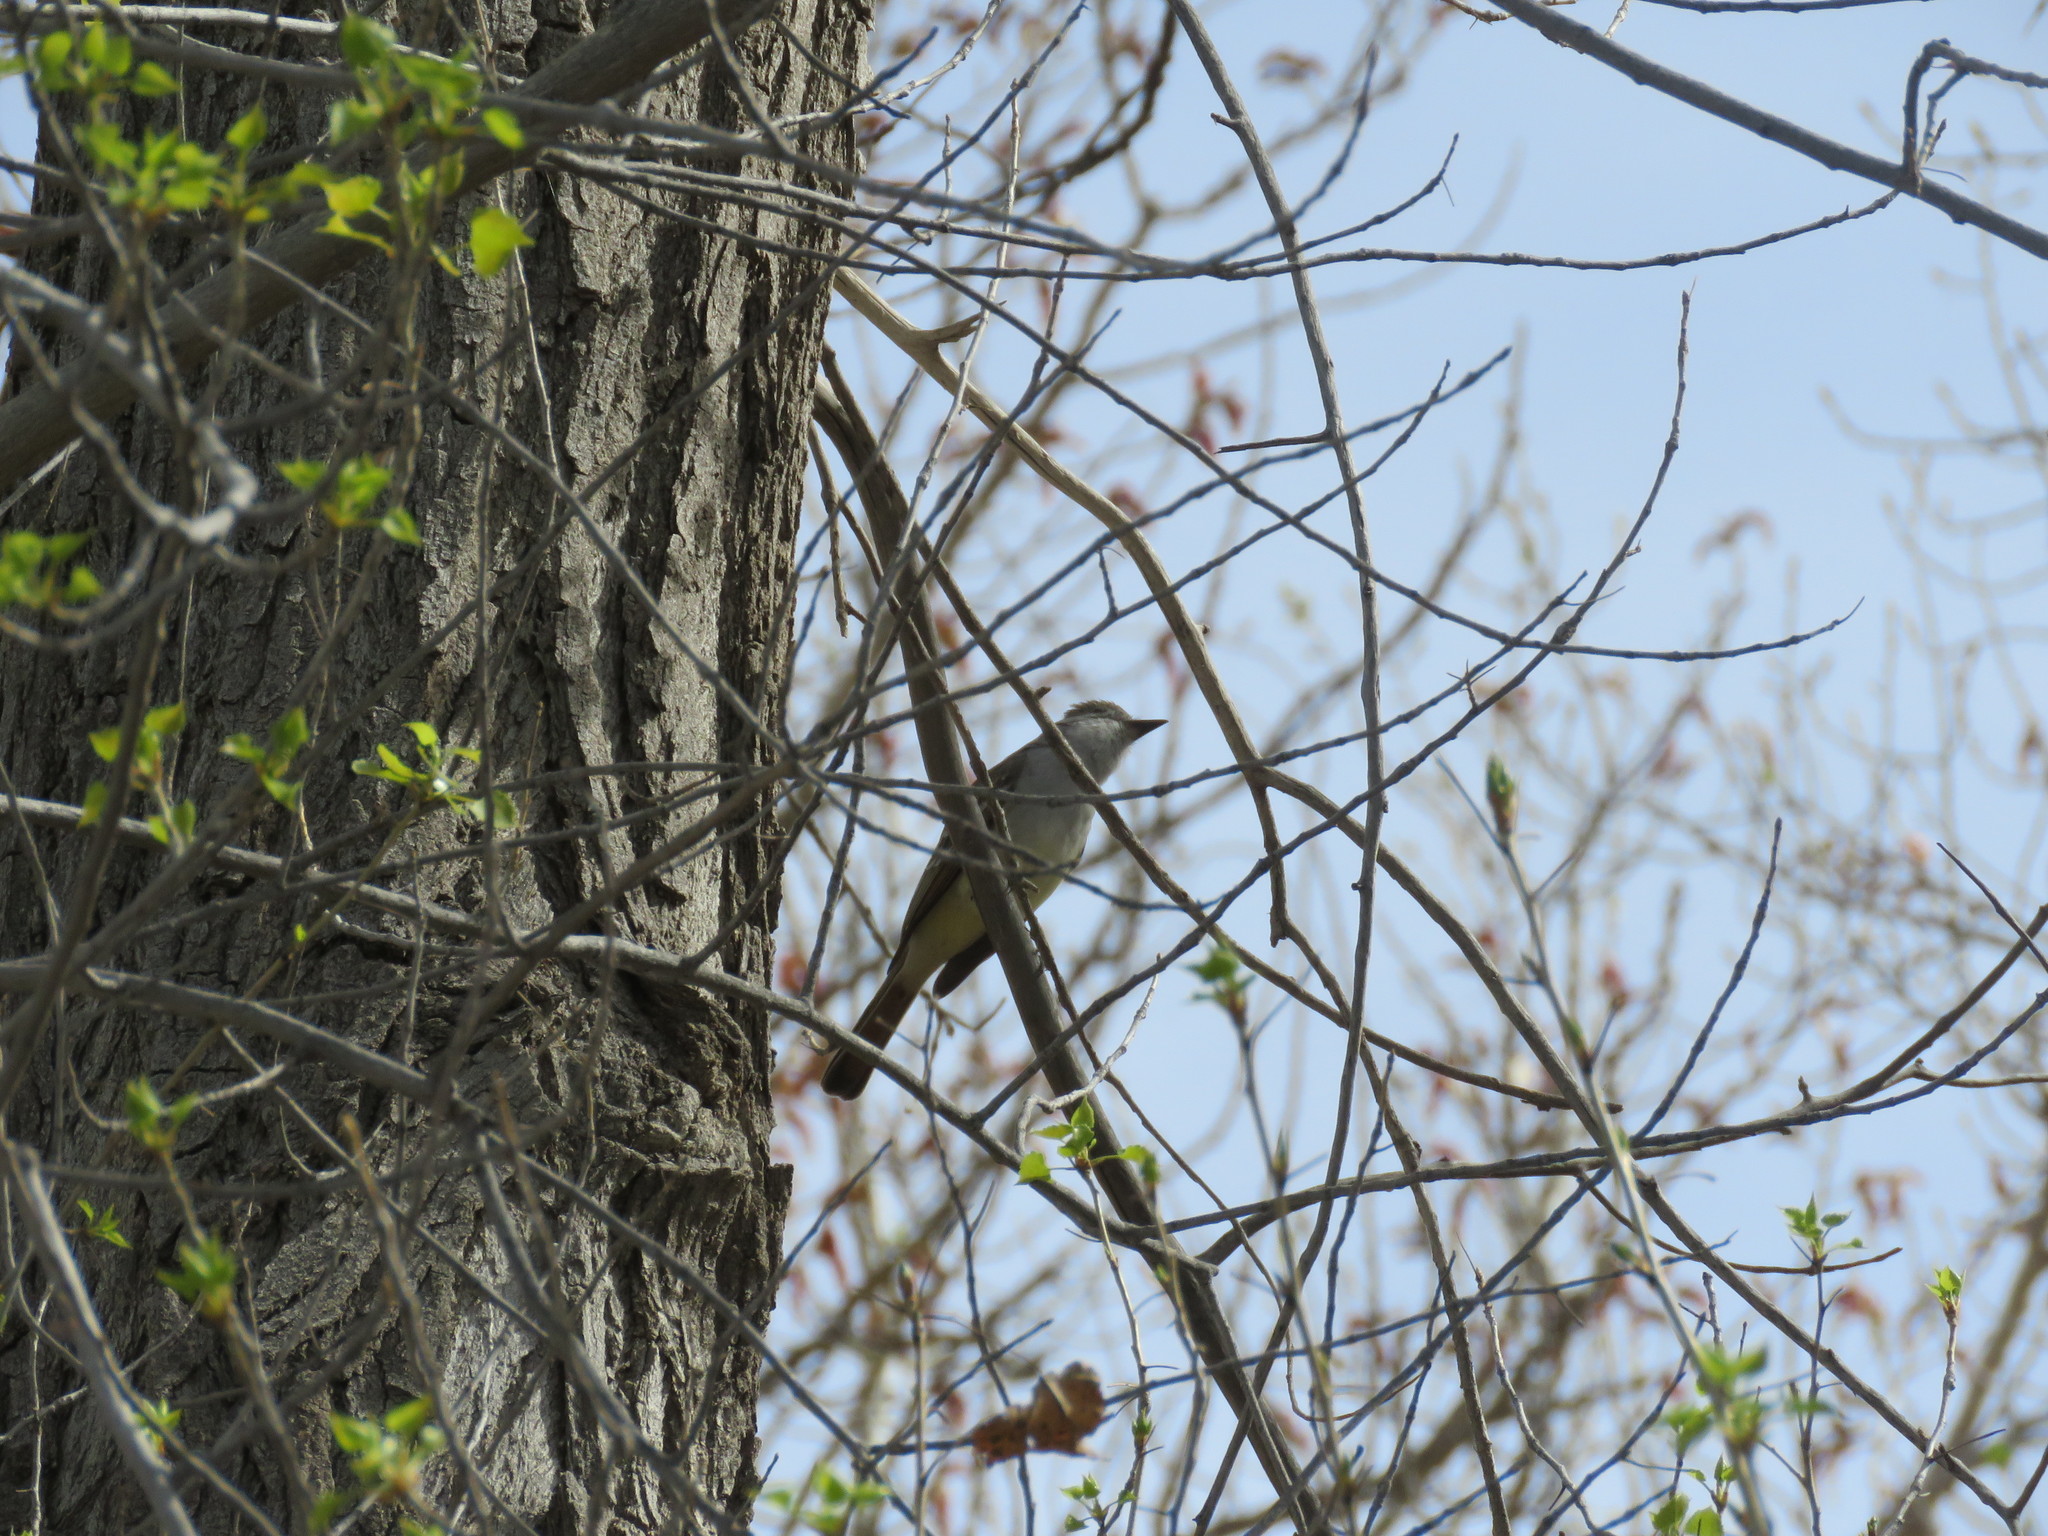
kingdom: Animalia
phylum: Chordata
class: Aves
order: Passeriformes
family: Tyrannidae
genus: Myiarchus
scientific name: Myiarchus cinerascens
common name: Ash-throated flycatcher
